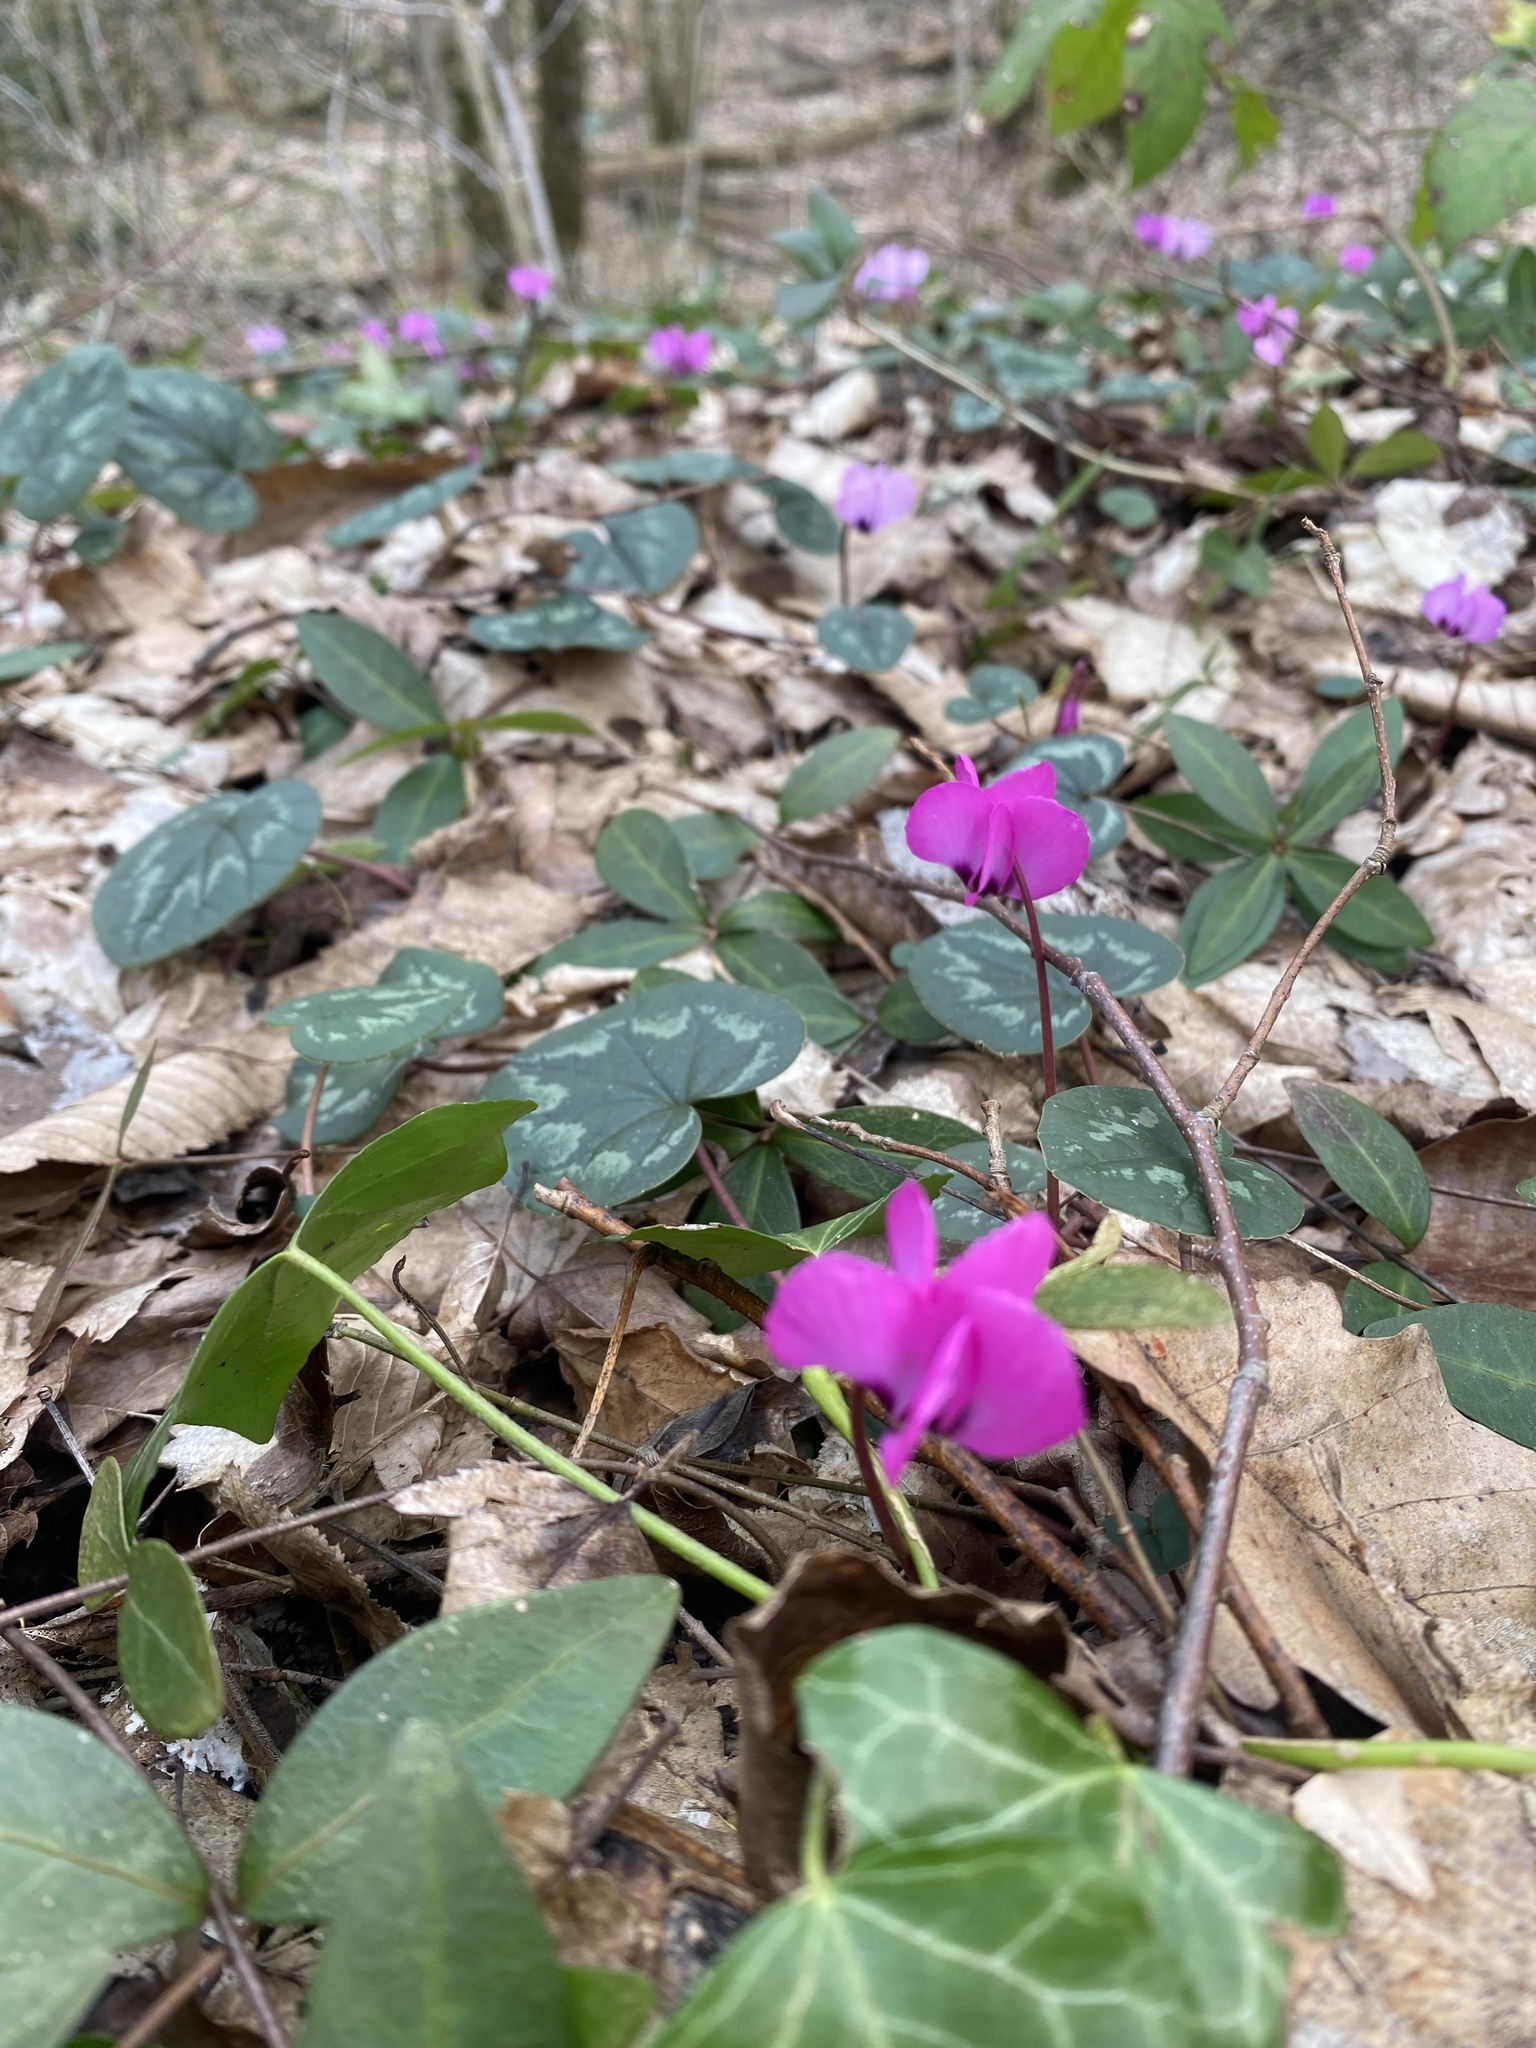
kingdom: Plantae
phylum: Tracheophyta
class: Magnoliopsida
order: Ericales
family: Primulaceae
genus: Cyclamen
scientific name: Cyclamen coum
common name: Eastern sowbread
